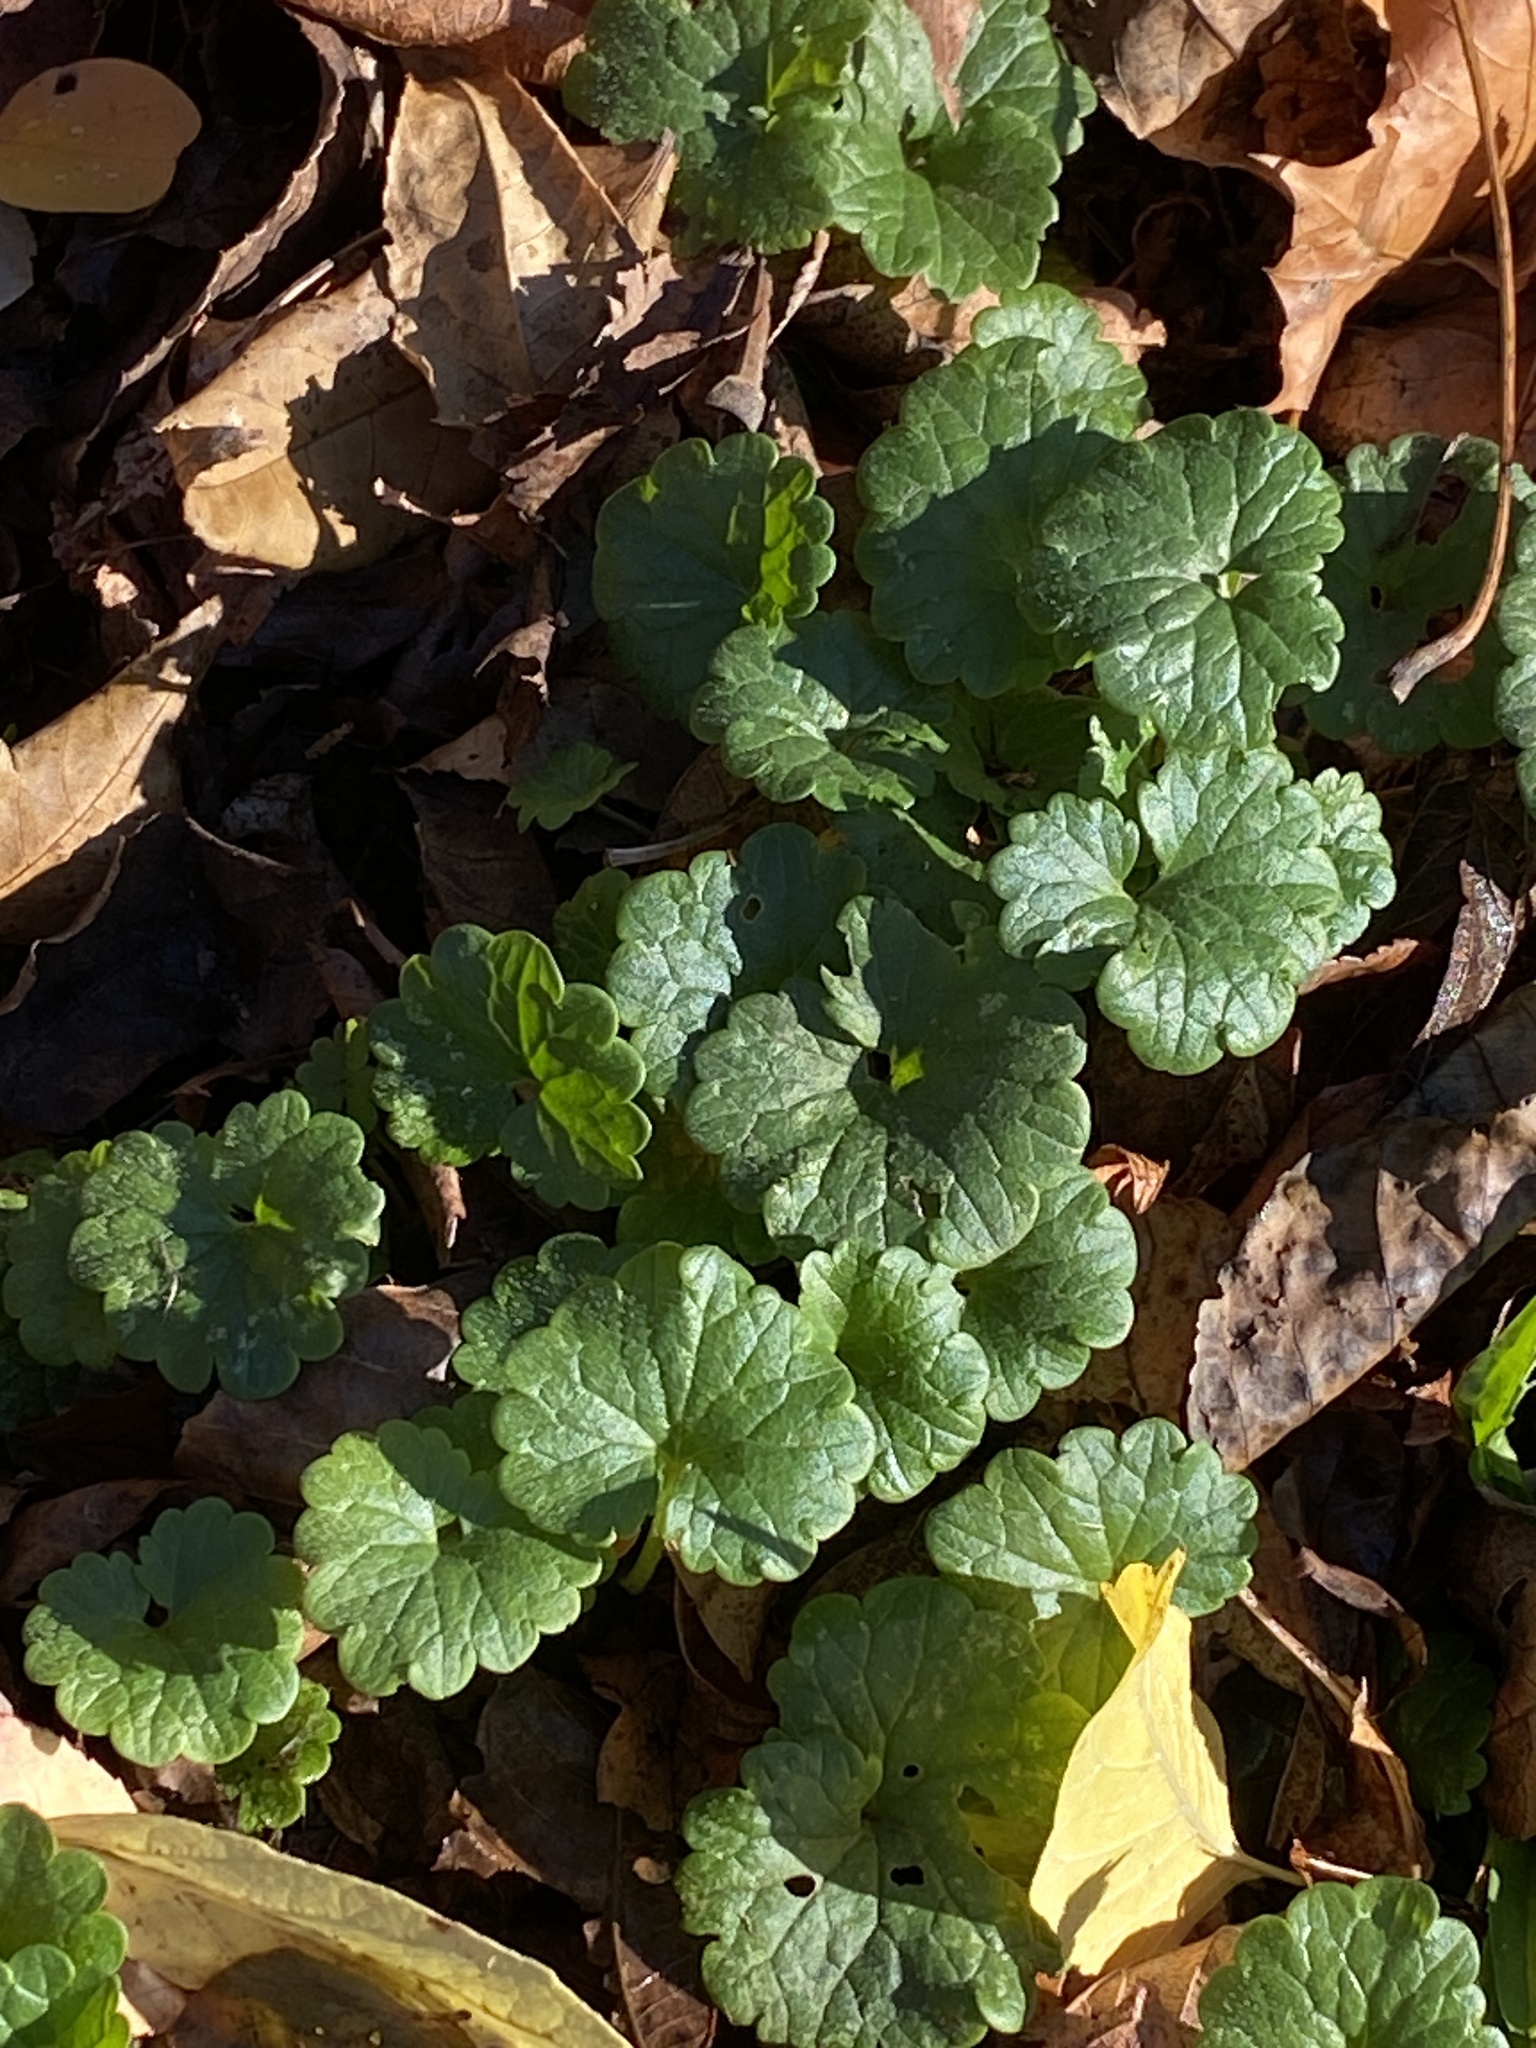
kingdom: Plantae
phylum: Tracheophyta
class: Magnoliopsida
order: Lamiales
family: Lamiaceae
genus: Glechoma
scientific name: Glechoma hederacea
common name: Ground ivy
